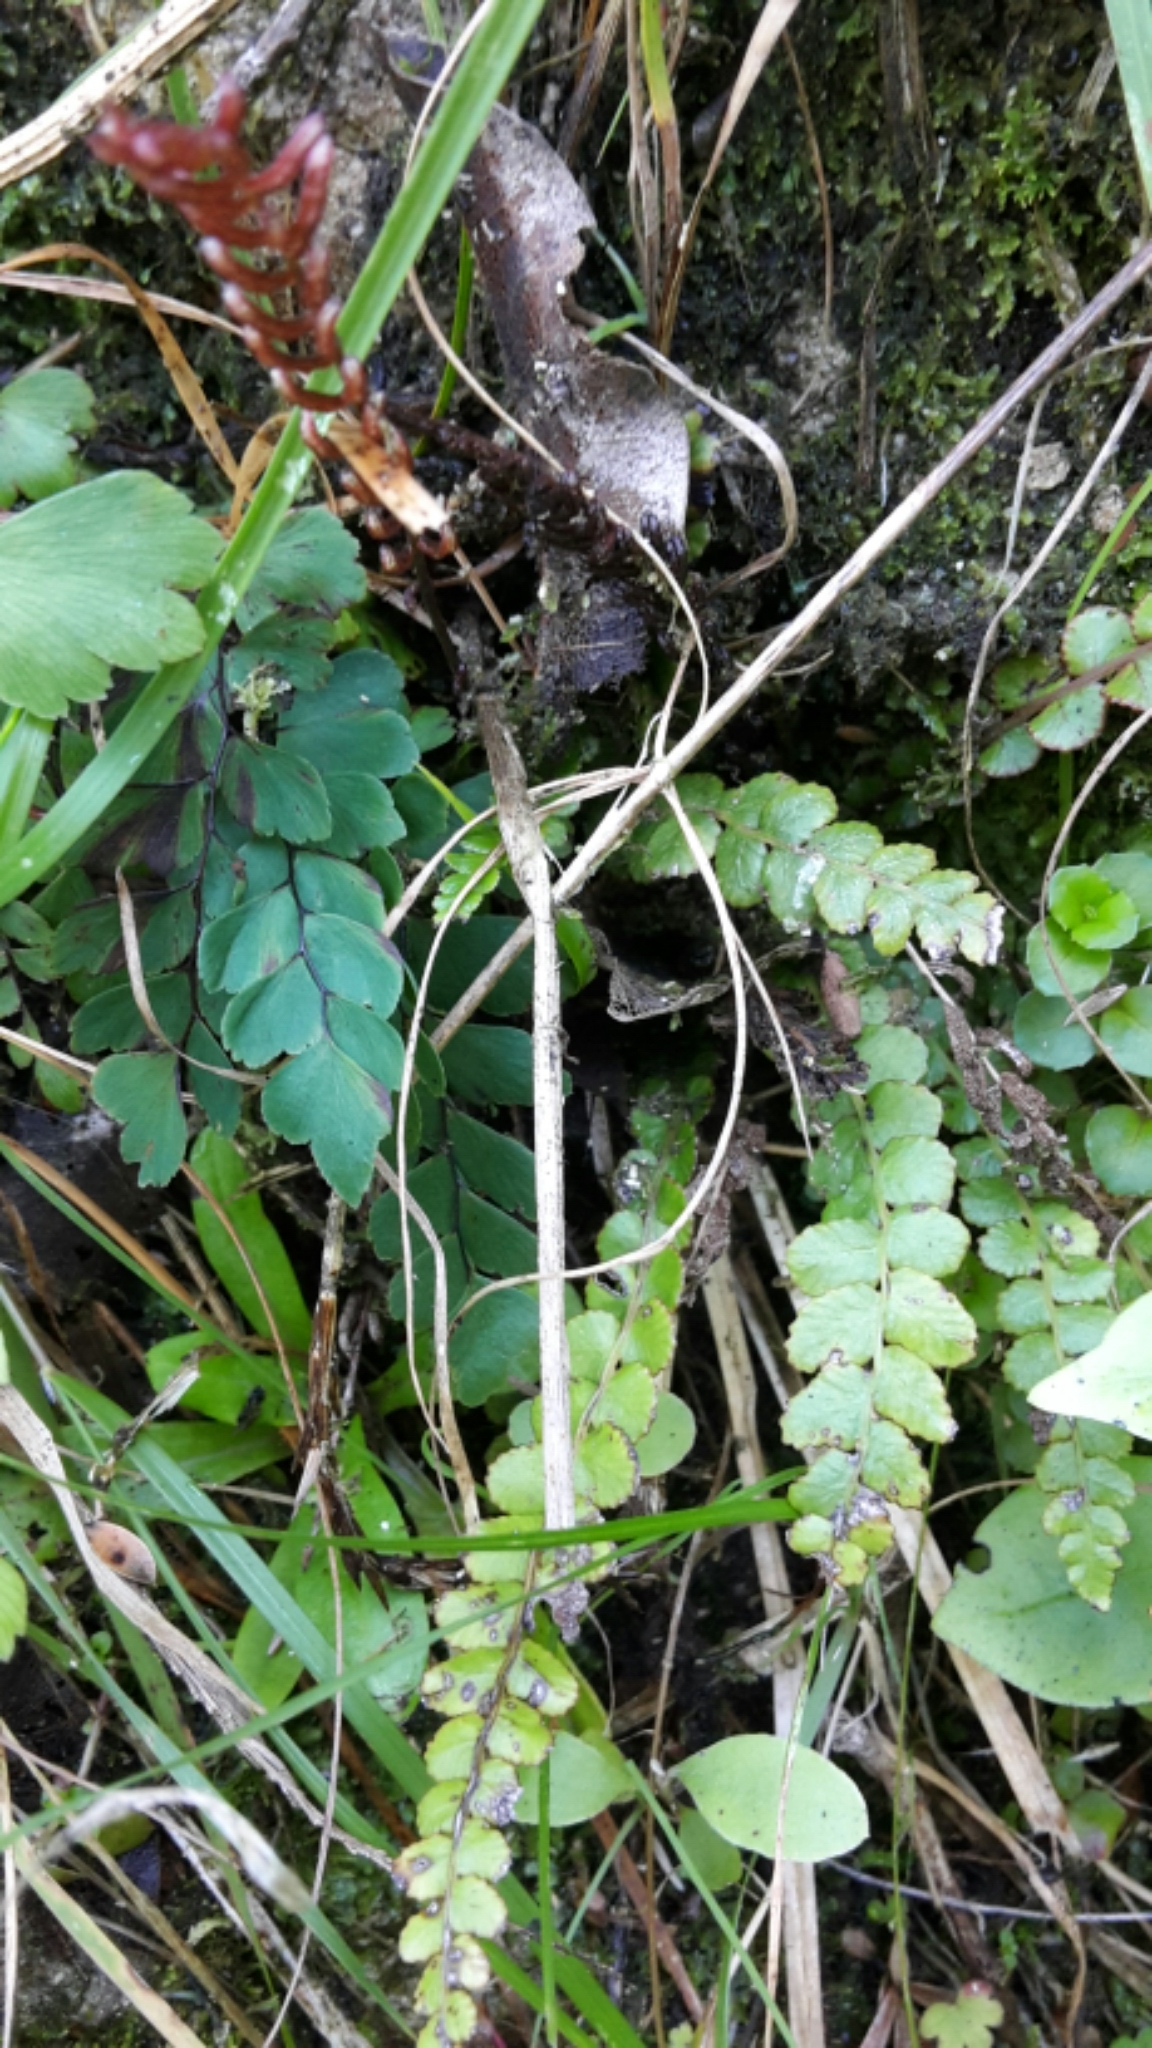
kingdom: Plantae
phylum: Tracheophyta
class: Polypodiopsida
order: Polypodiales
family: Blechnaceae
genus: Austroblechnum
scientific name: Austroblechnum membranaceum
